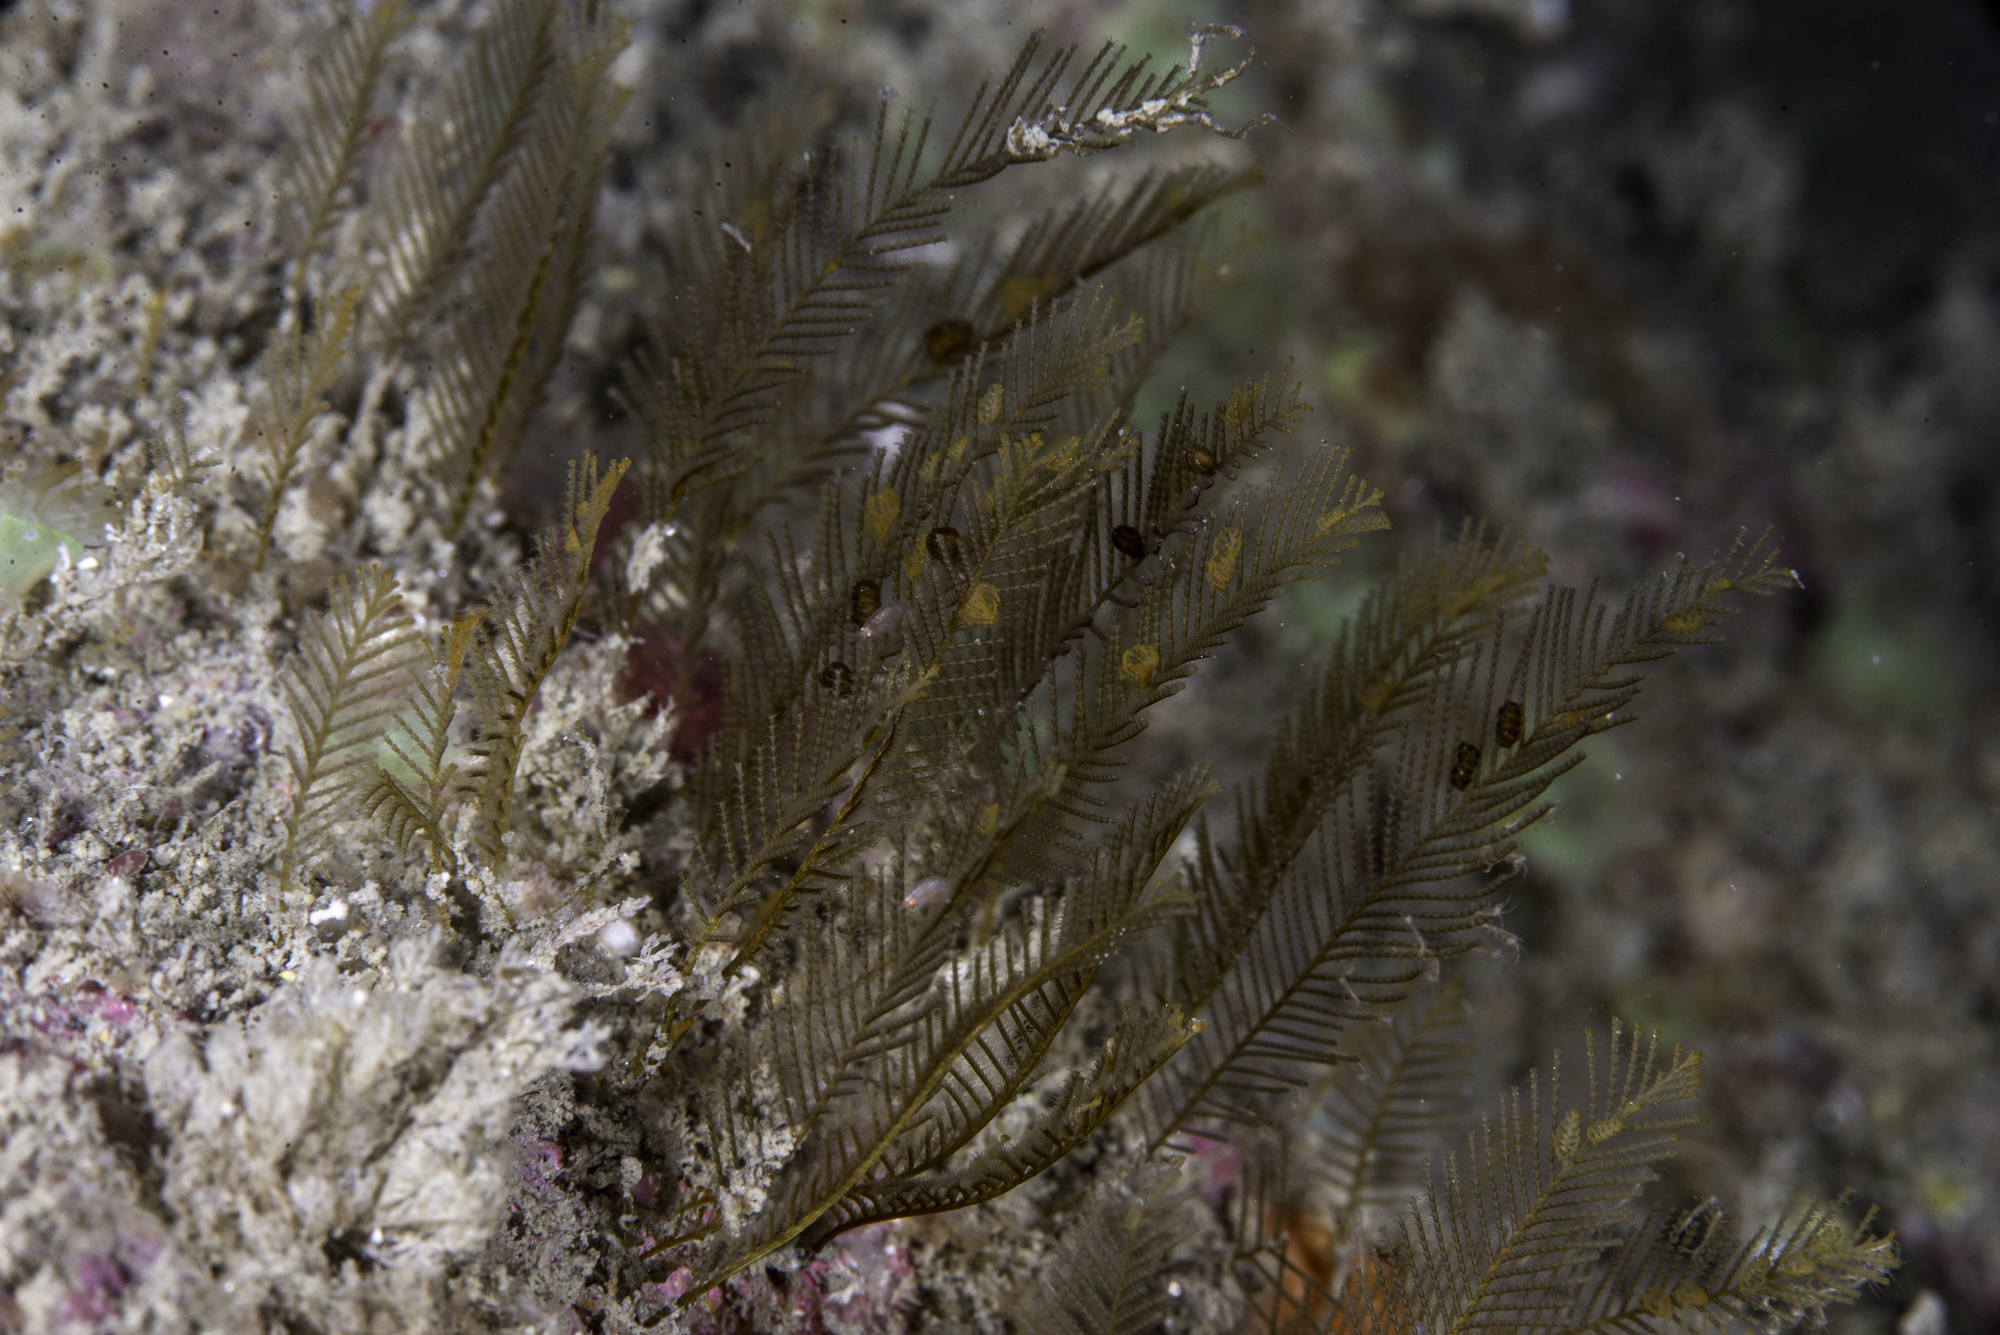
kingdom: Animalia
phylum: Cnidaria
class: Hydrozoa
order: Leptothecata
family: Aglaopheniidae
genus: Aglaophenia
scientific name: Aglaophenia kirchenpaueri
